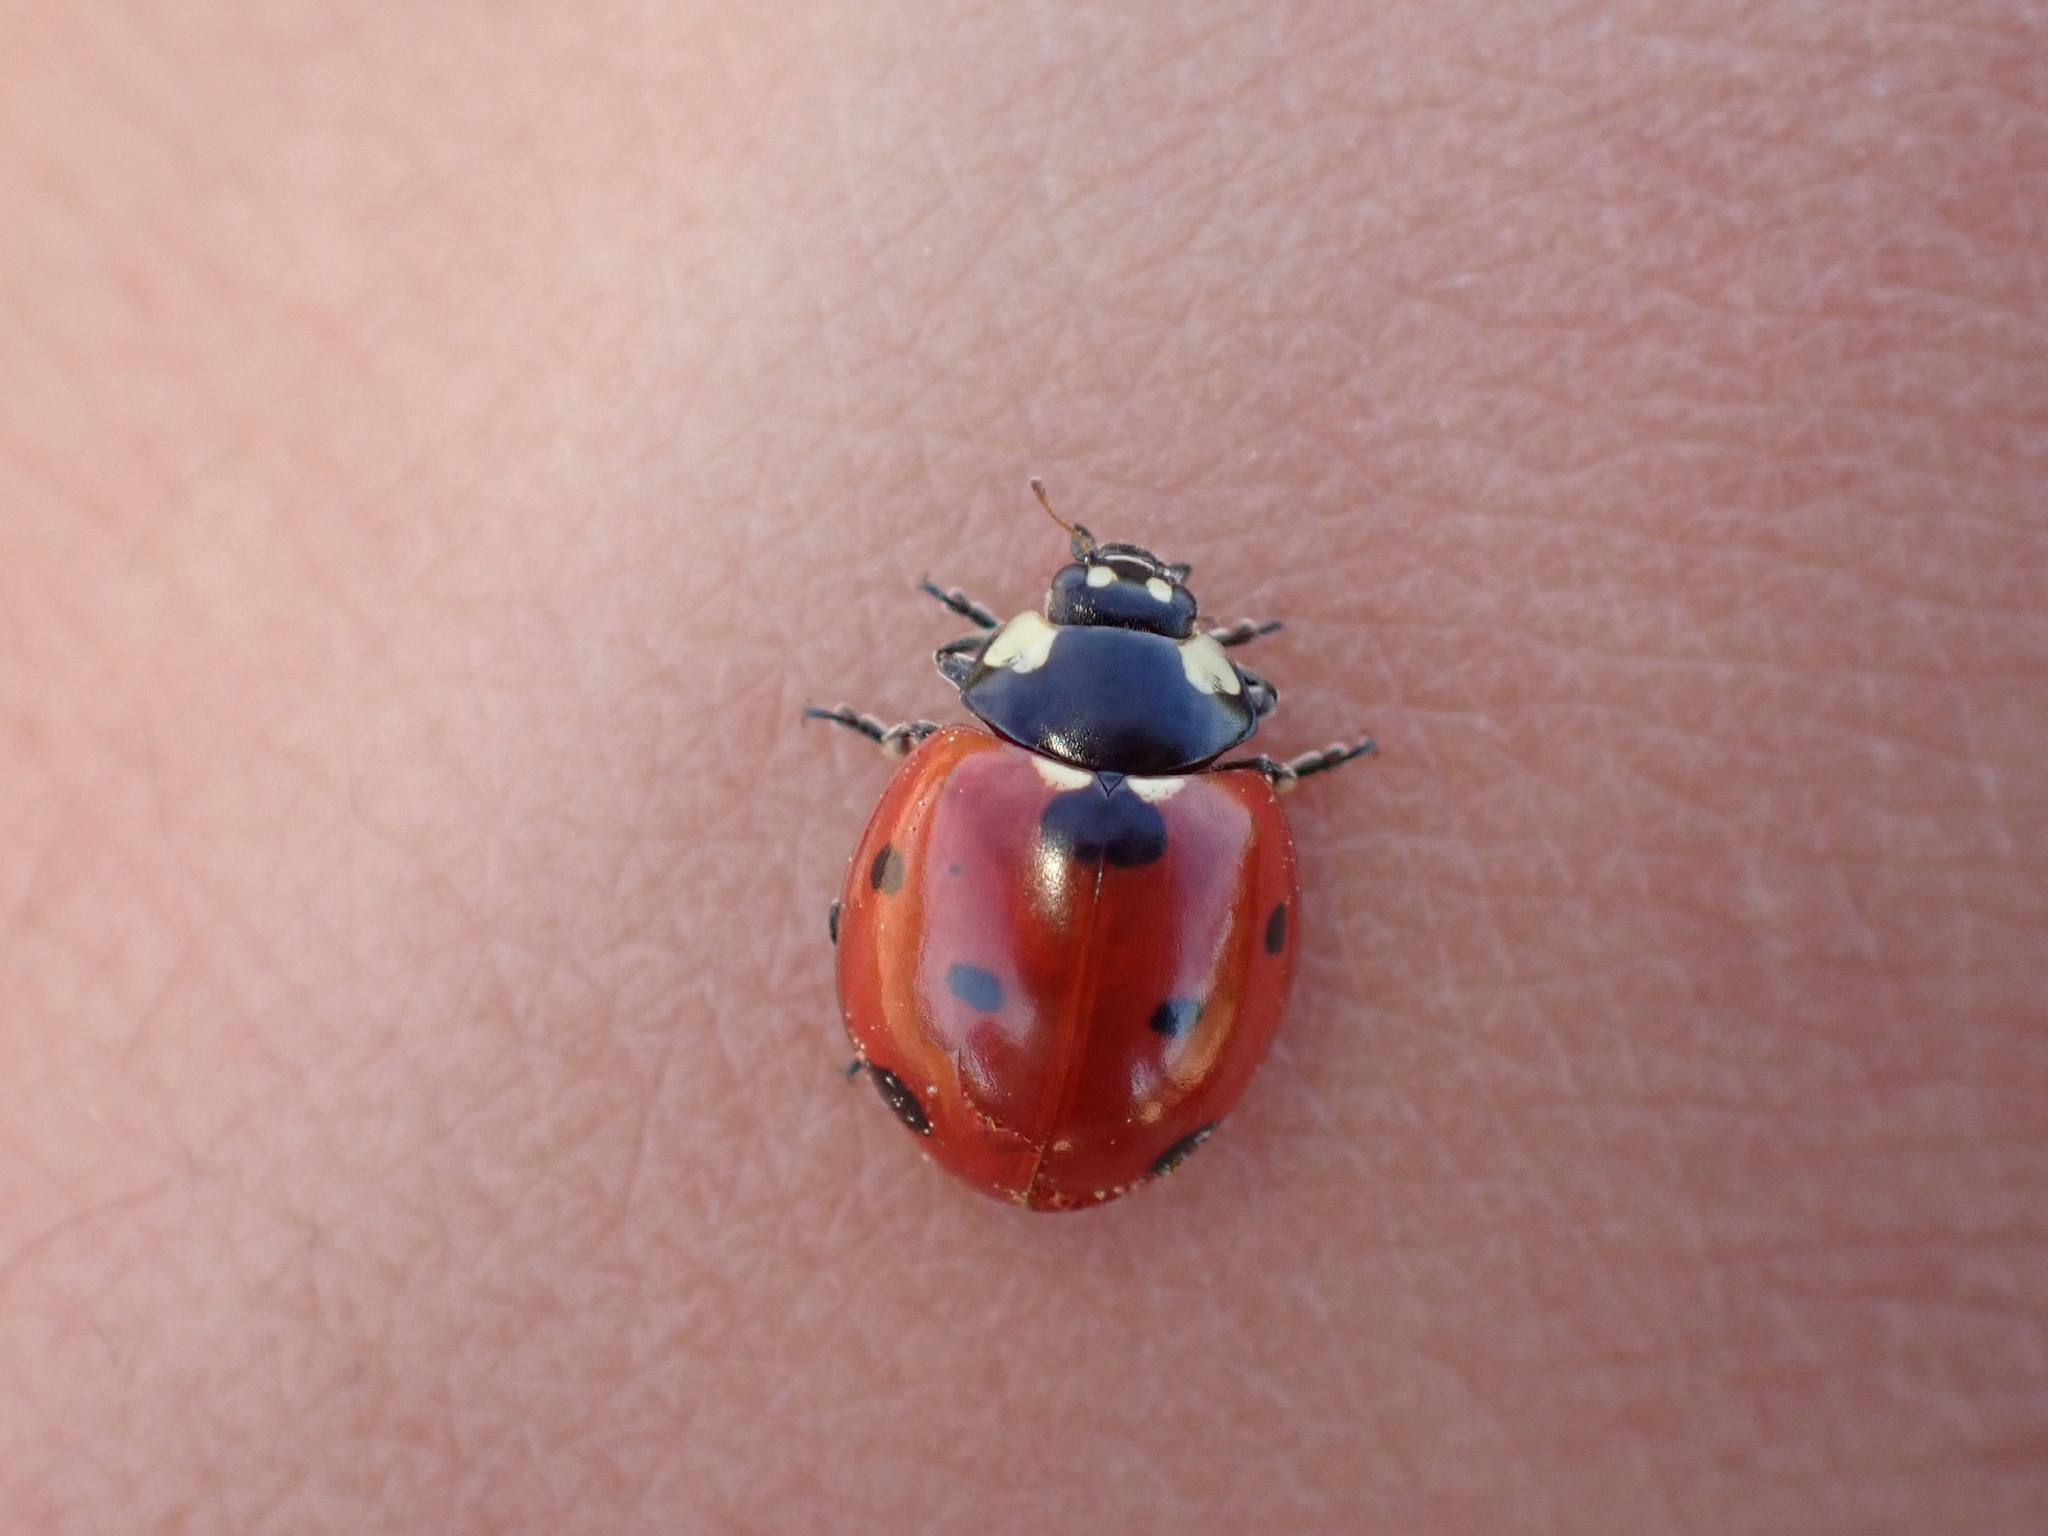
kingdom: Animalia
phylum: Arthropoda
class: Insecta
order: Coleoptera
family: Coccinellidae
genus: Coccinella
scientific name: Coccinella septempunctata
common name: Sevenspotted lady beetle
